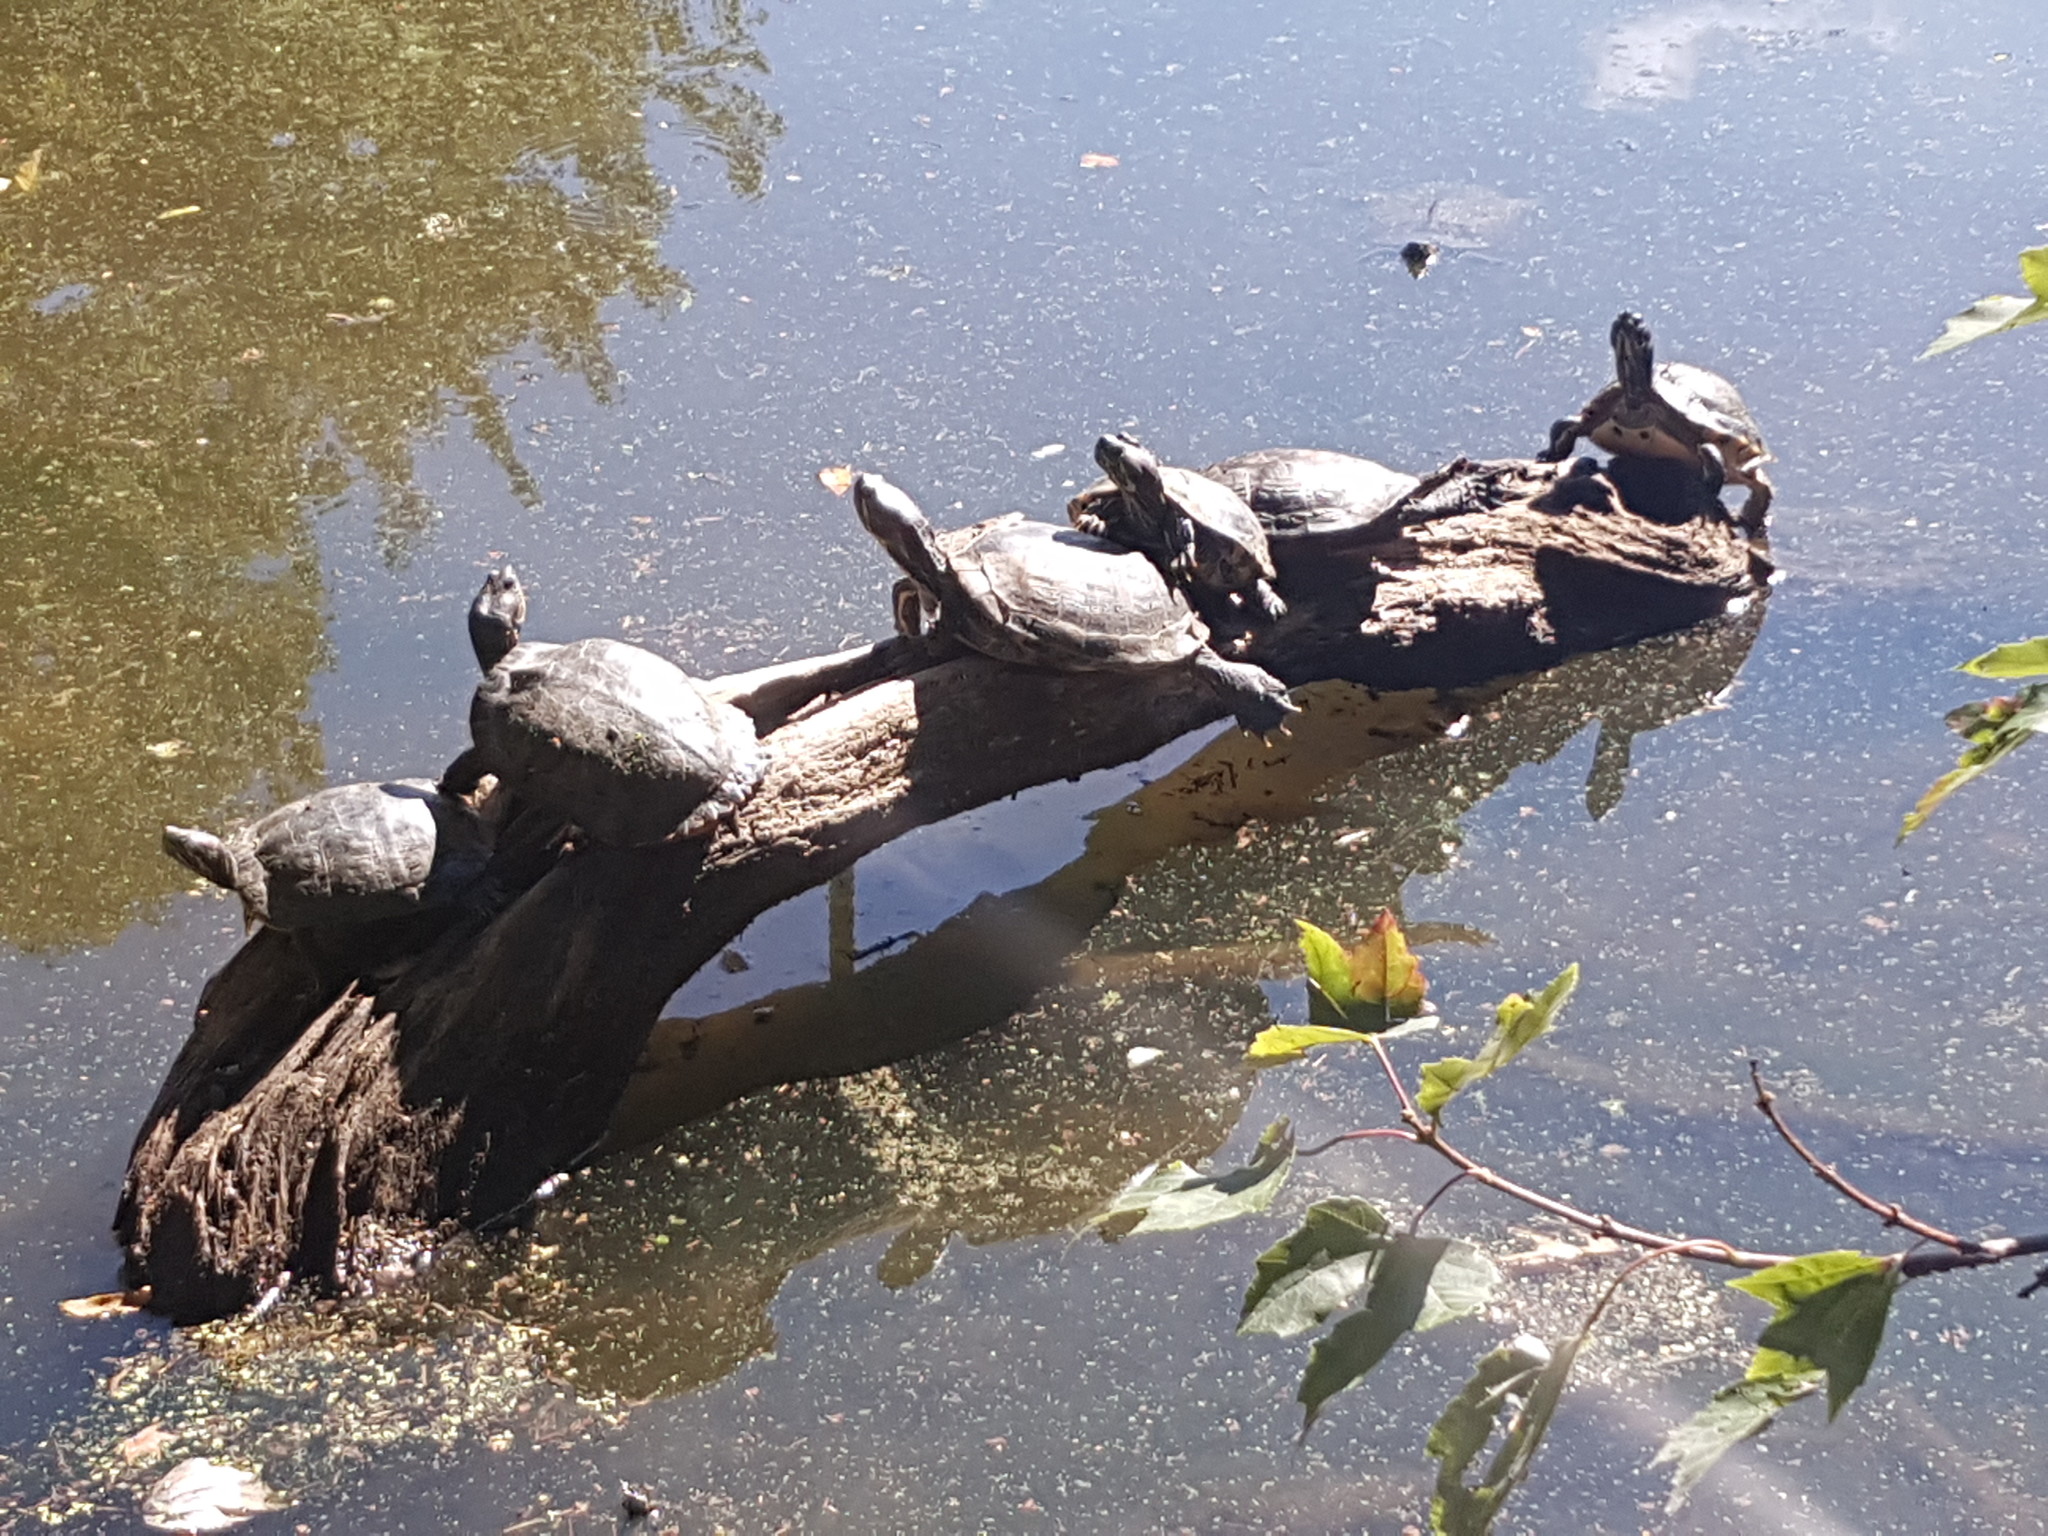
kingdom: Animalia
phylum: Chordata
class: Testudines
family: Emydidae
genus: Trachemys
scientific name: Trachemys scripta
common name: Slider
